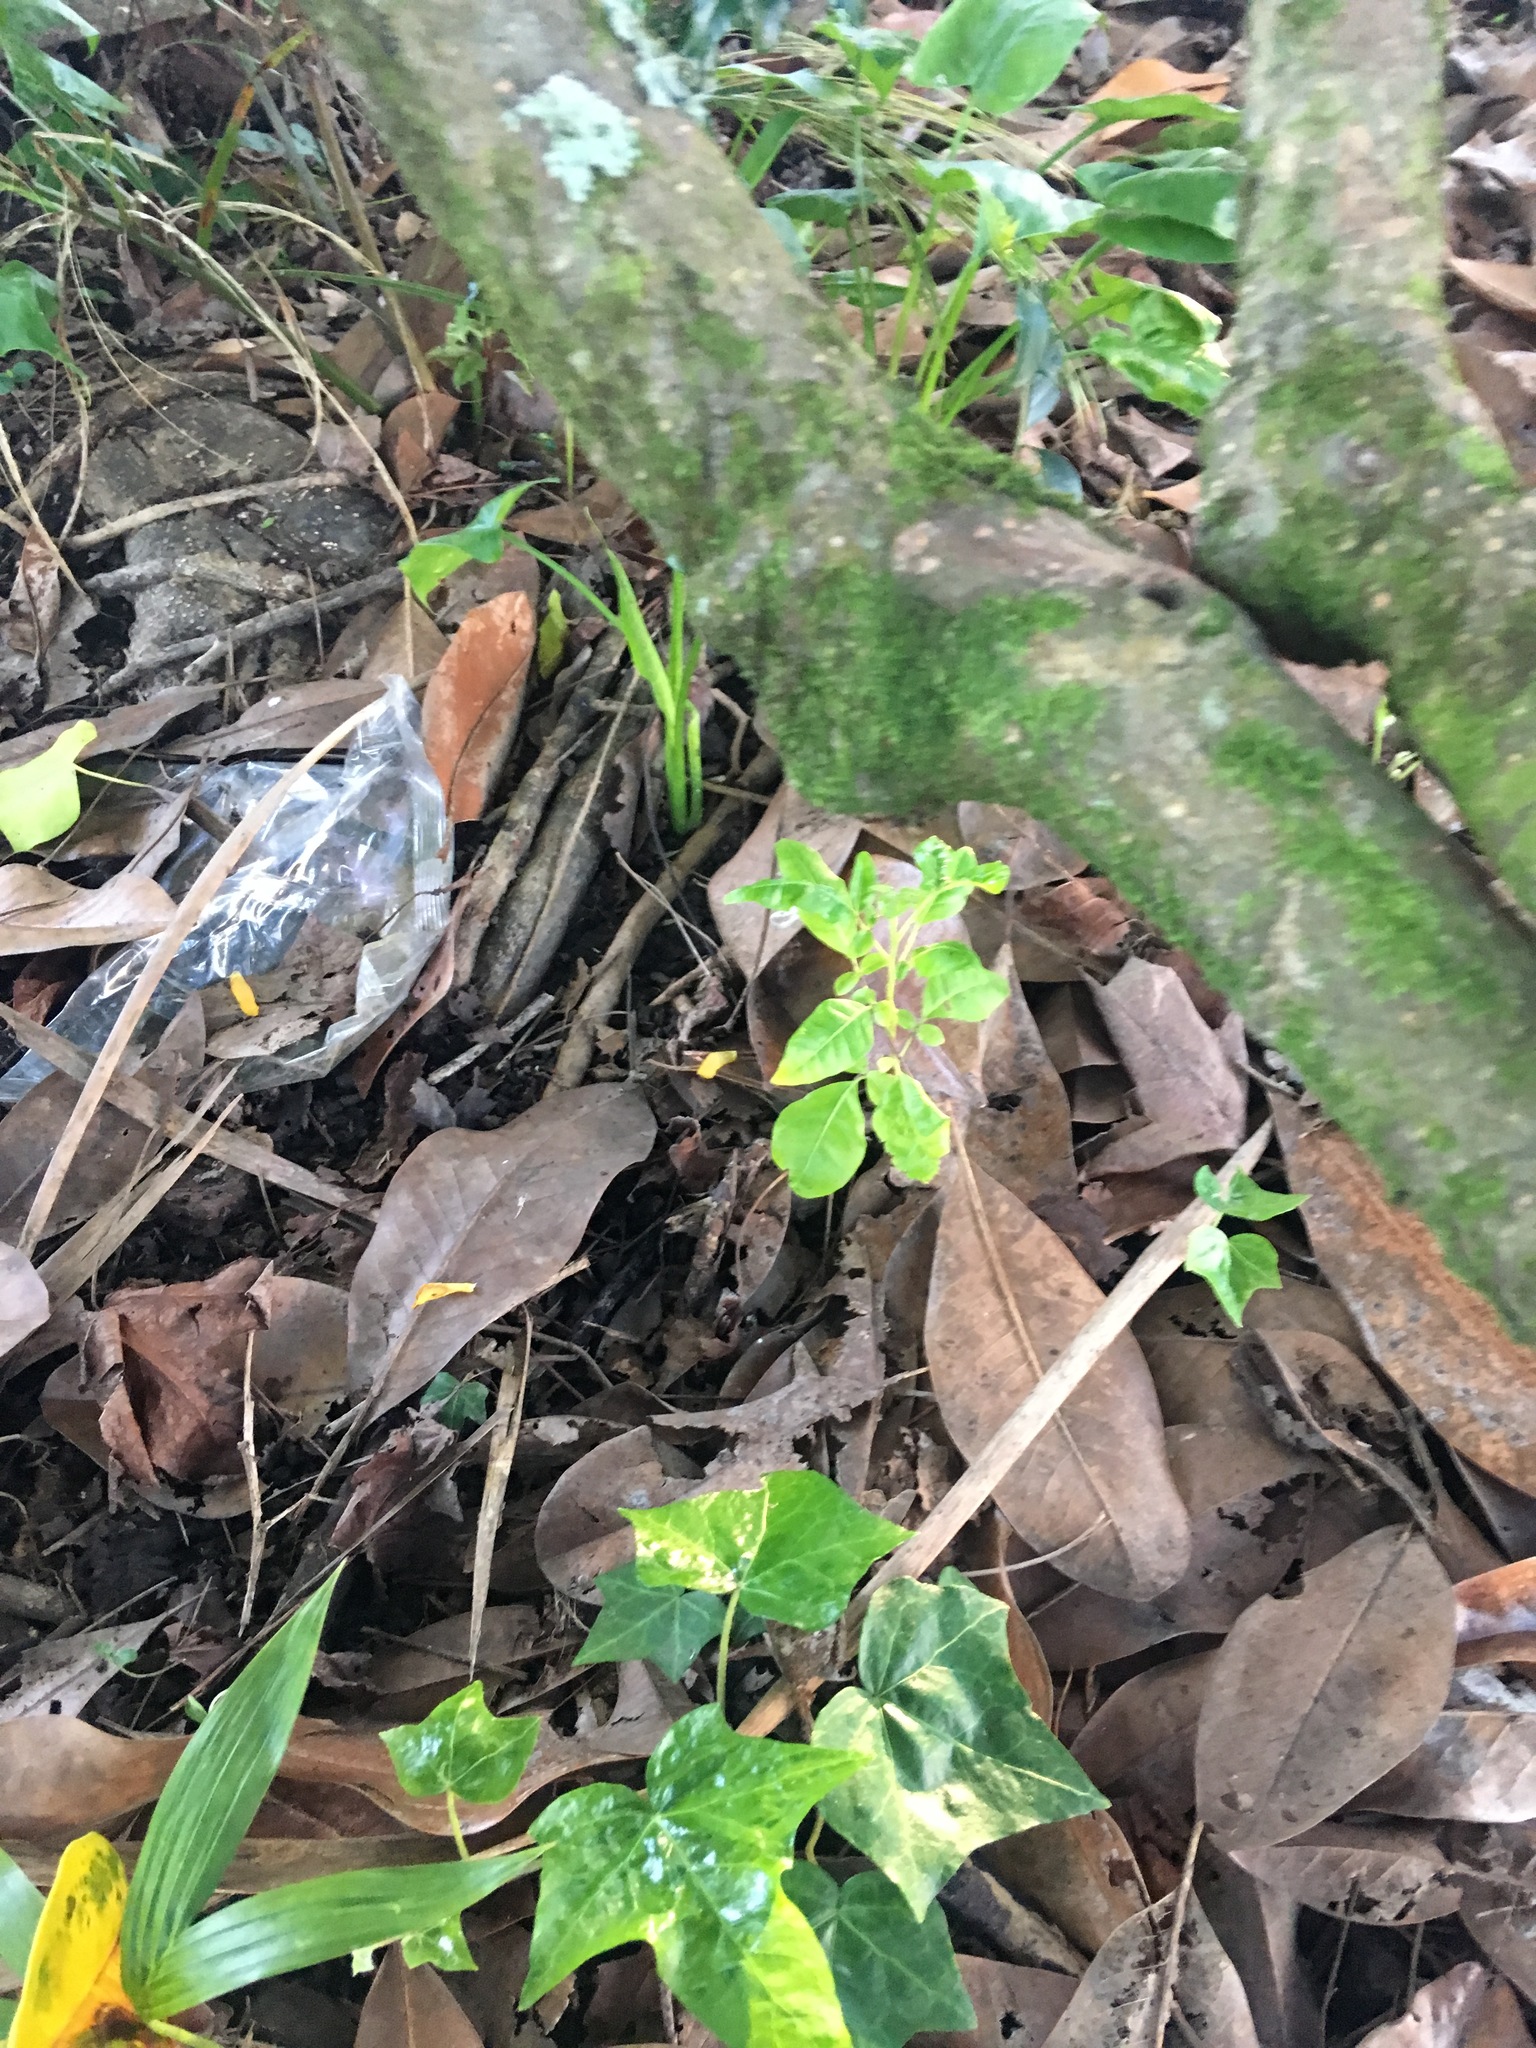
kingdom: Plantae
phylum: Tracheophyta
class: Magnoliopsida
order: Lamiales
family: Lamiaceae
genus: Vitex
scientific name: Vitex lucens
